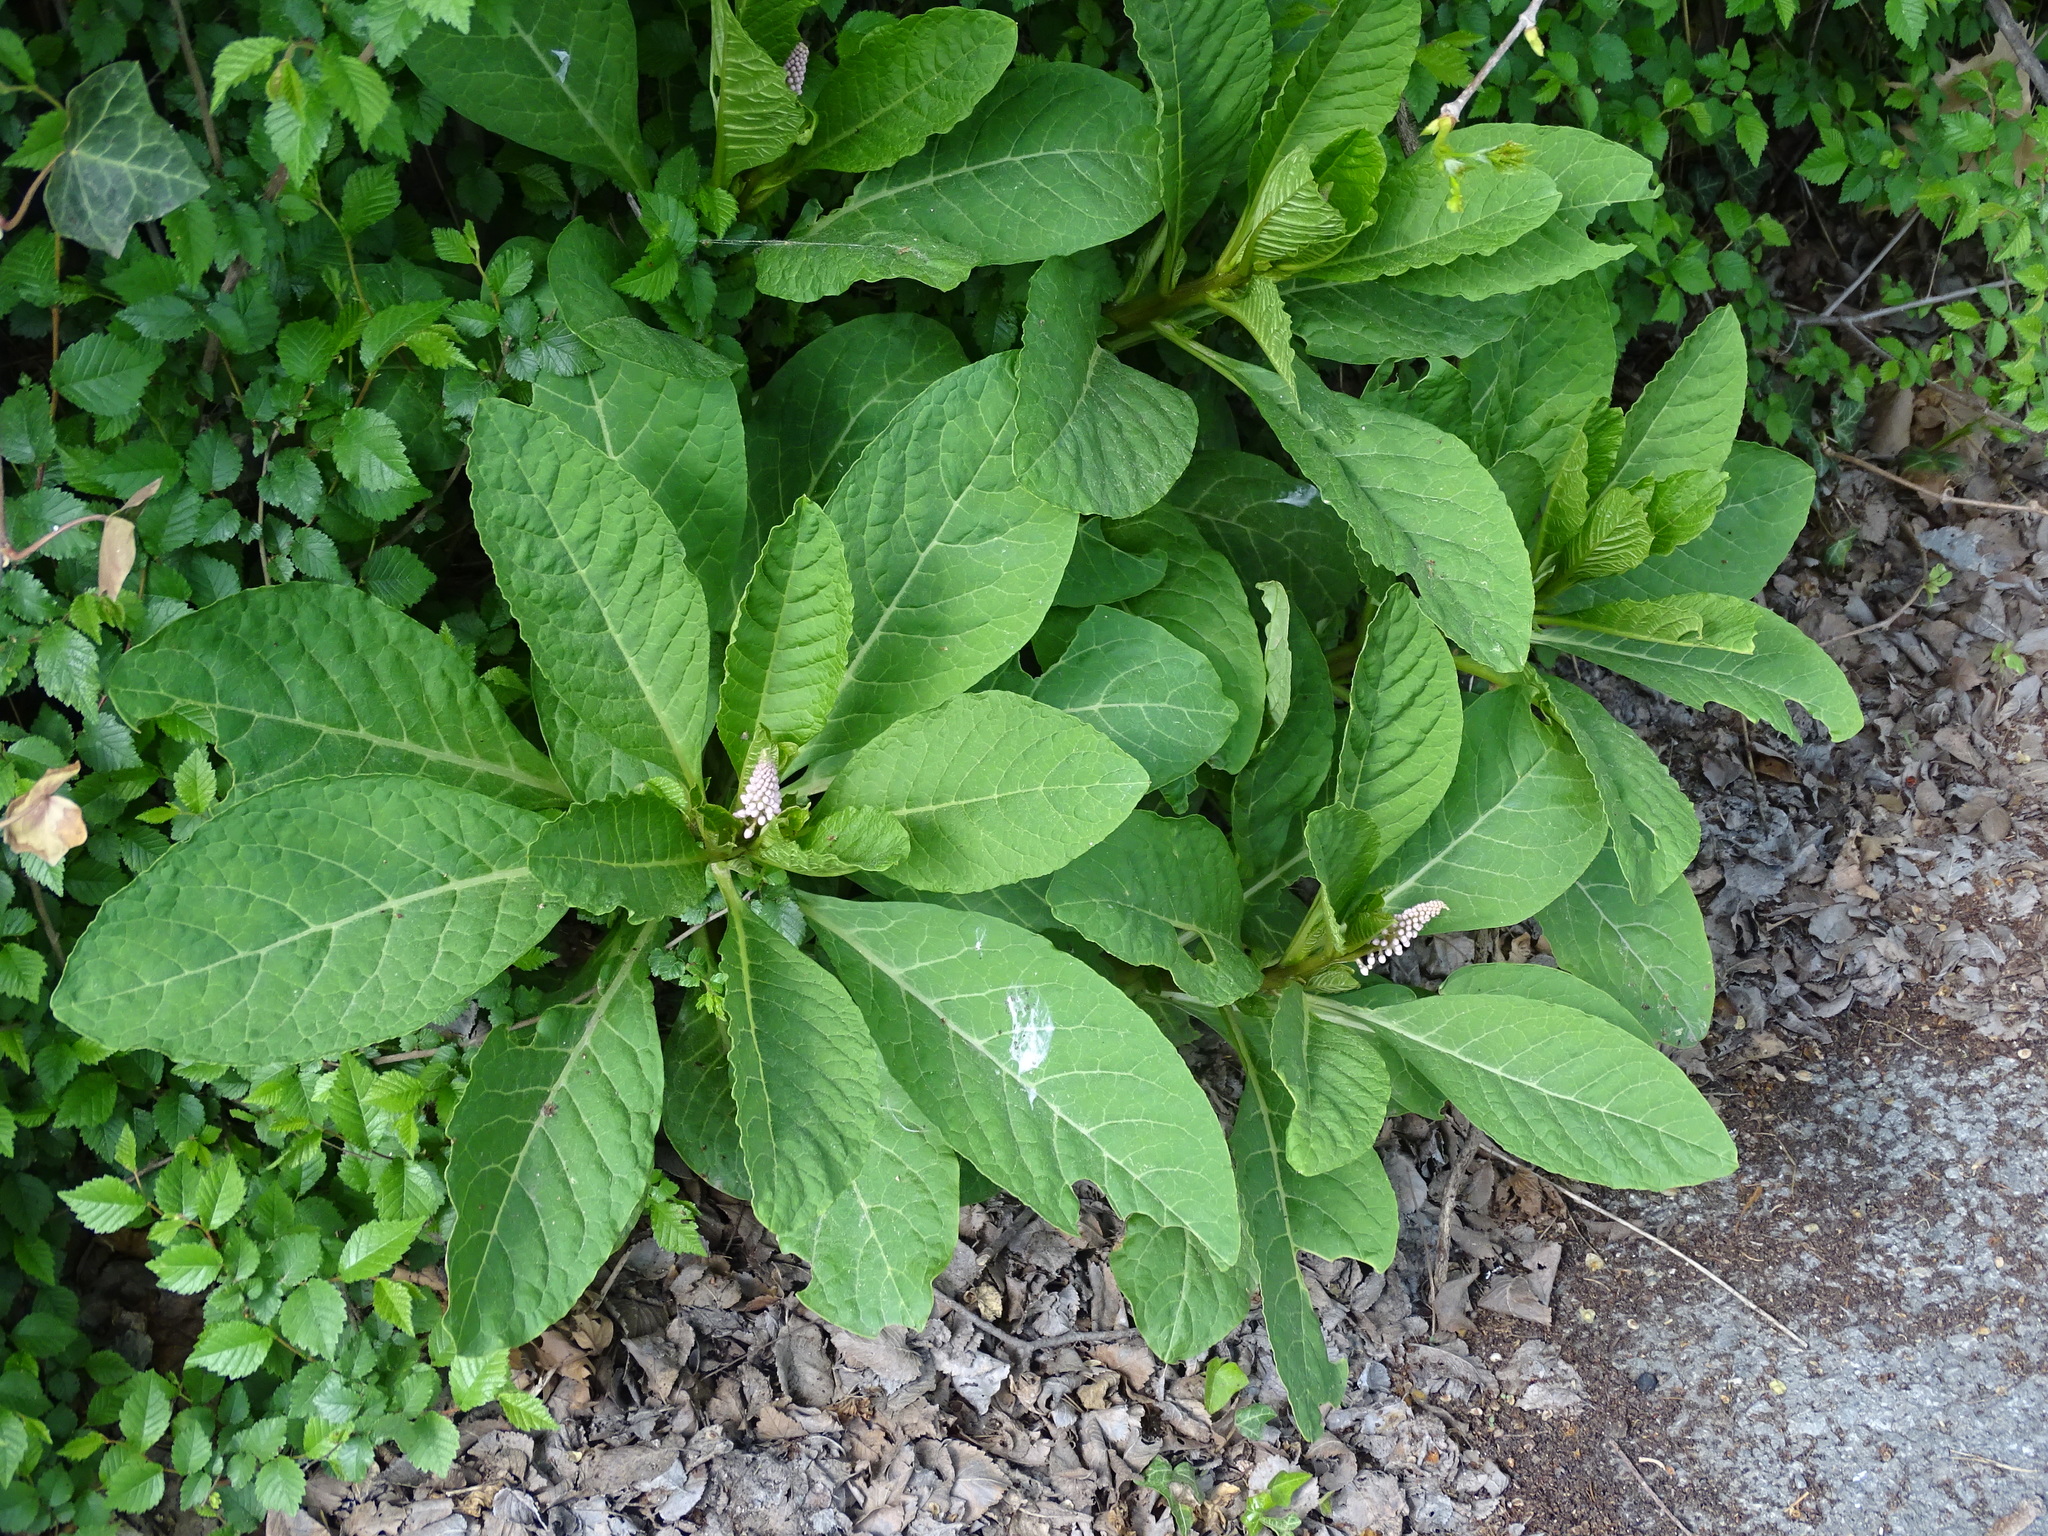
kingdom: Plantae
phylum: Tracheophyta
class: Magnoliopsida
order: Caryophyllales
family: Phytolaccaceae
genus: Phytolacca
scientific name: Phytolacca acinosa
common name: Indian pokeweed
